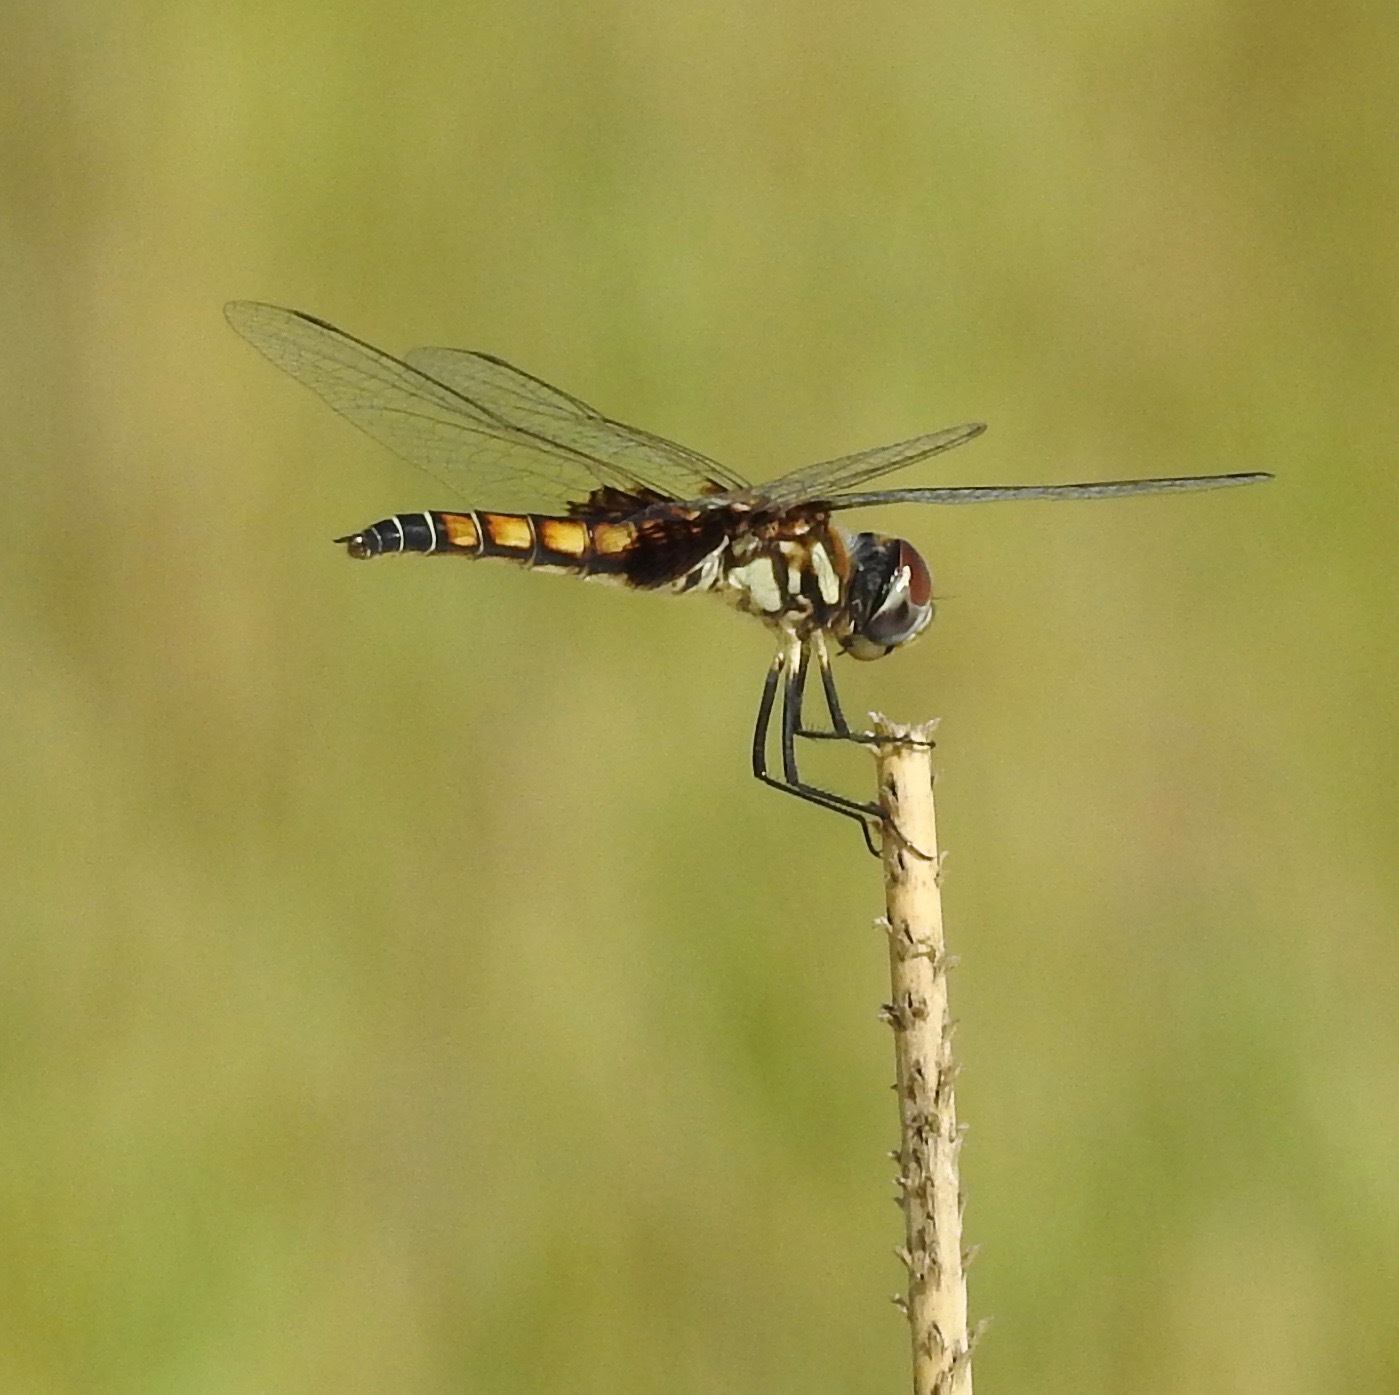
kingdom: Animalia
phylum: Arthropoda
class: Insecta
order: Odonata
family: Libellulidae
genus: Macrodiplax
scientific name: Macrodiplax balteata
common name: Marl pennant
